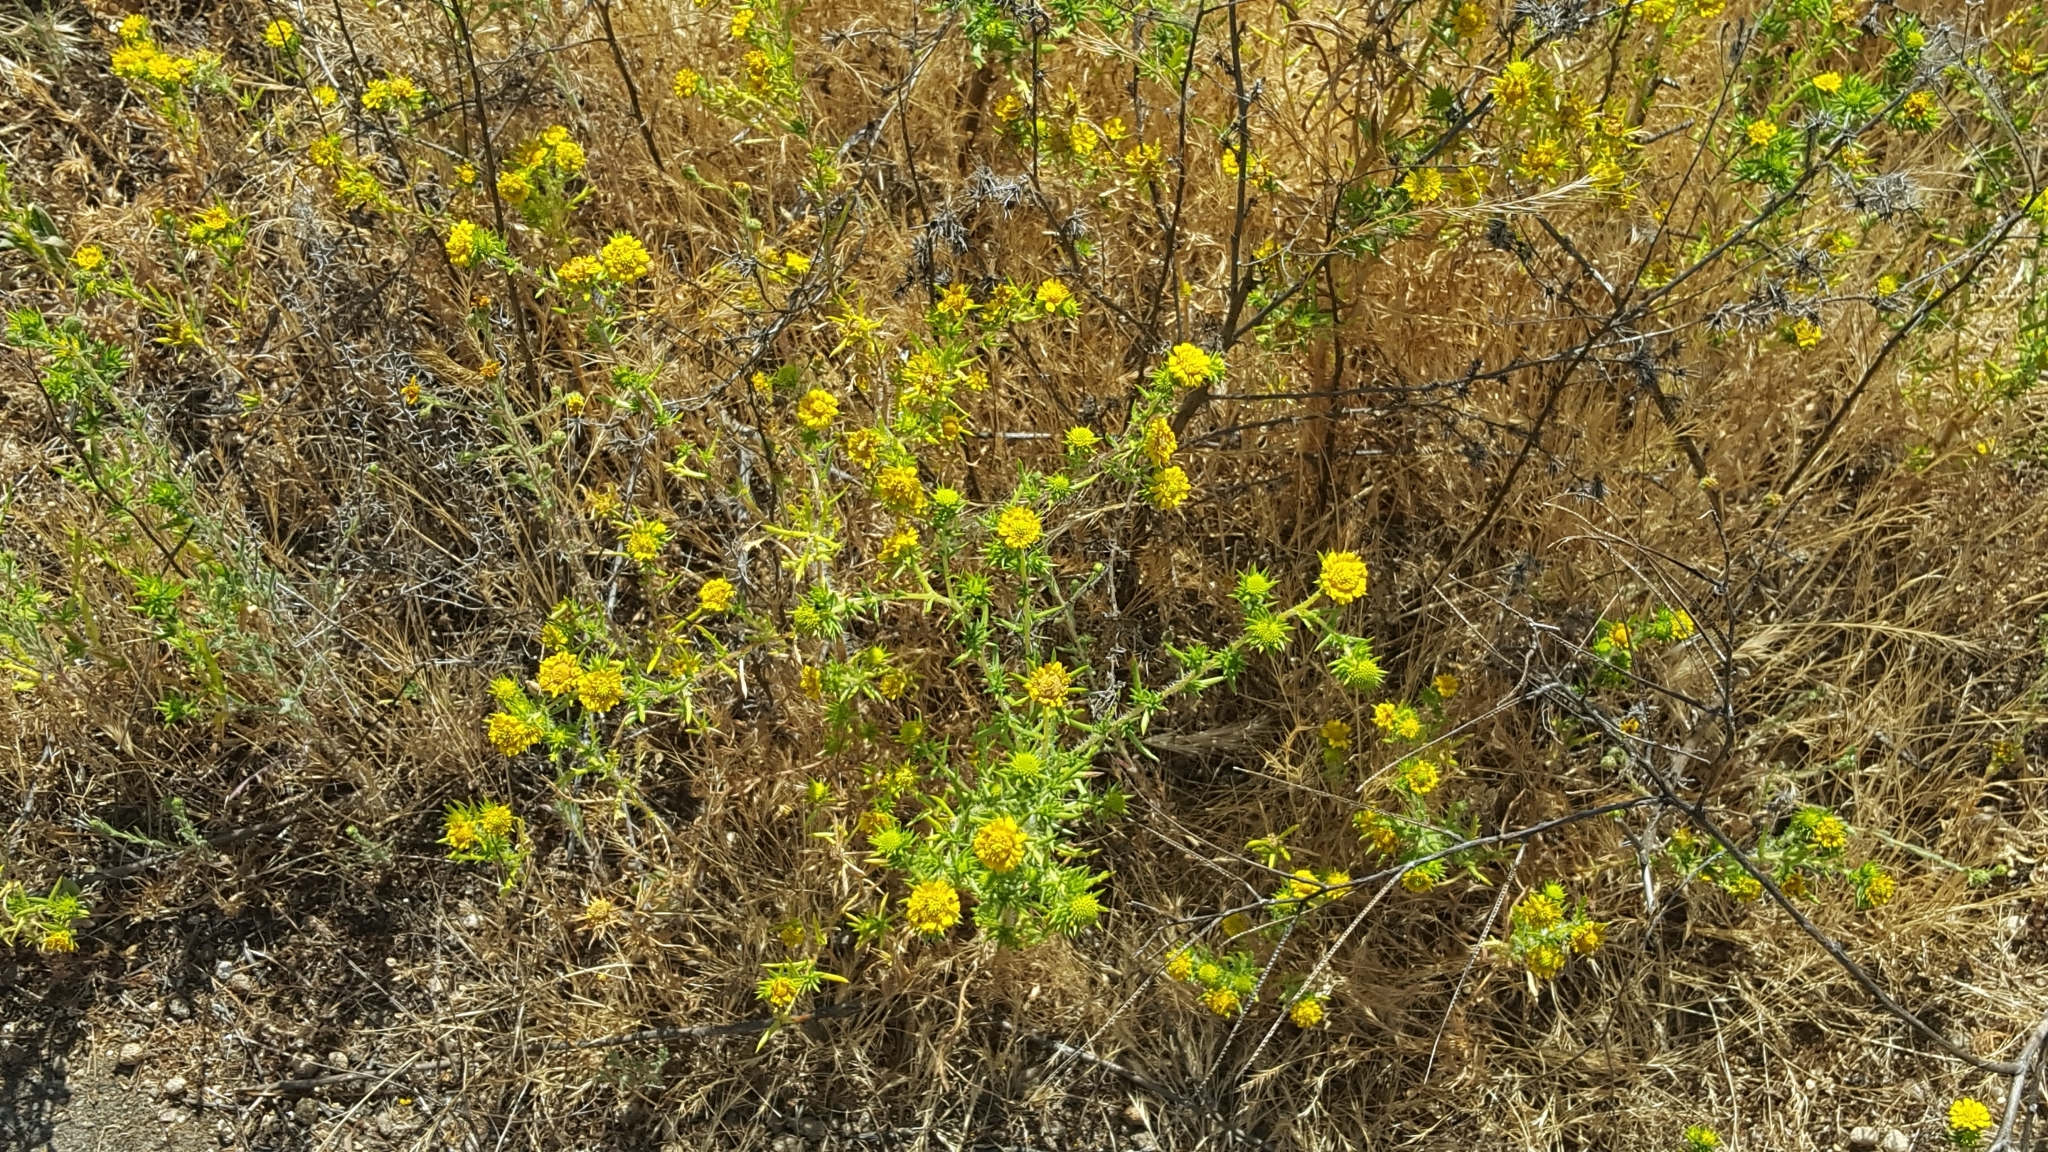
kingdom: Plantae
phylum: Tracheophyta
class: Magnoliopsida
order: Asterales
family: Asteraceae
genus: Centromadia
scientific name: Centromadia pungens
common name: Common spikeweed
